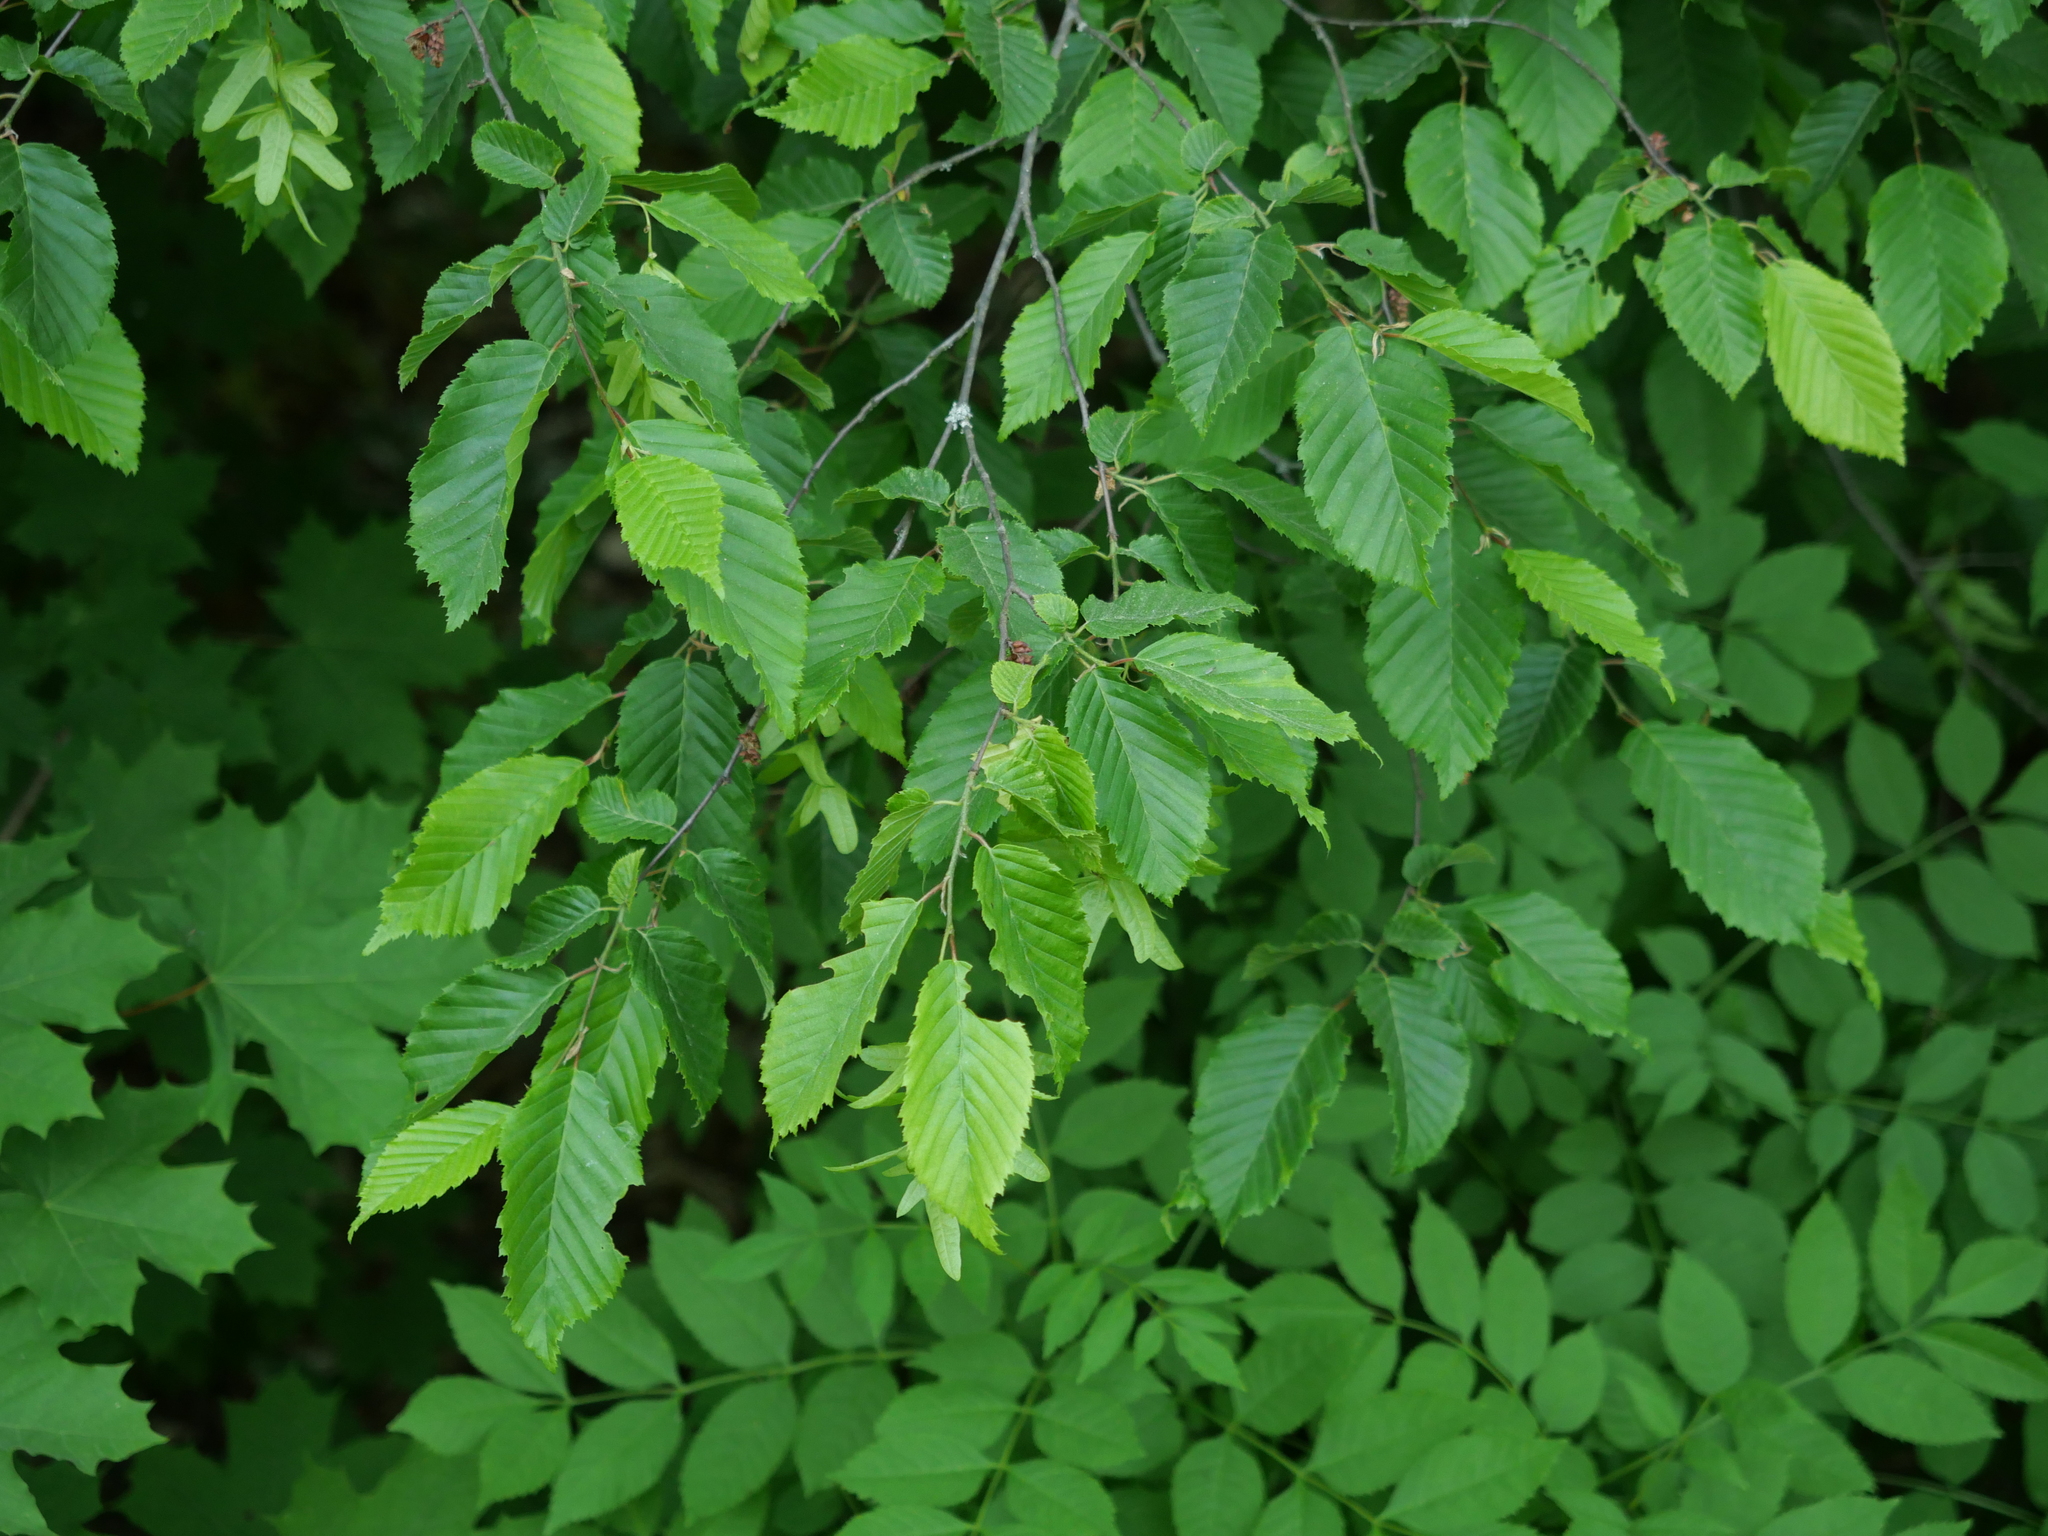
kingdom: Plantae
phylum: Tracheophyta
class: Magnoliopsida
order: Fagales
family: Betulaceae
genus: Carpinus
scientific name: Carpinus betulus
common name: Hornbeam
